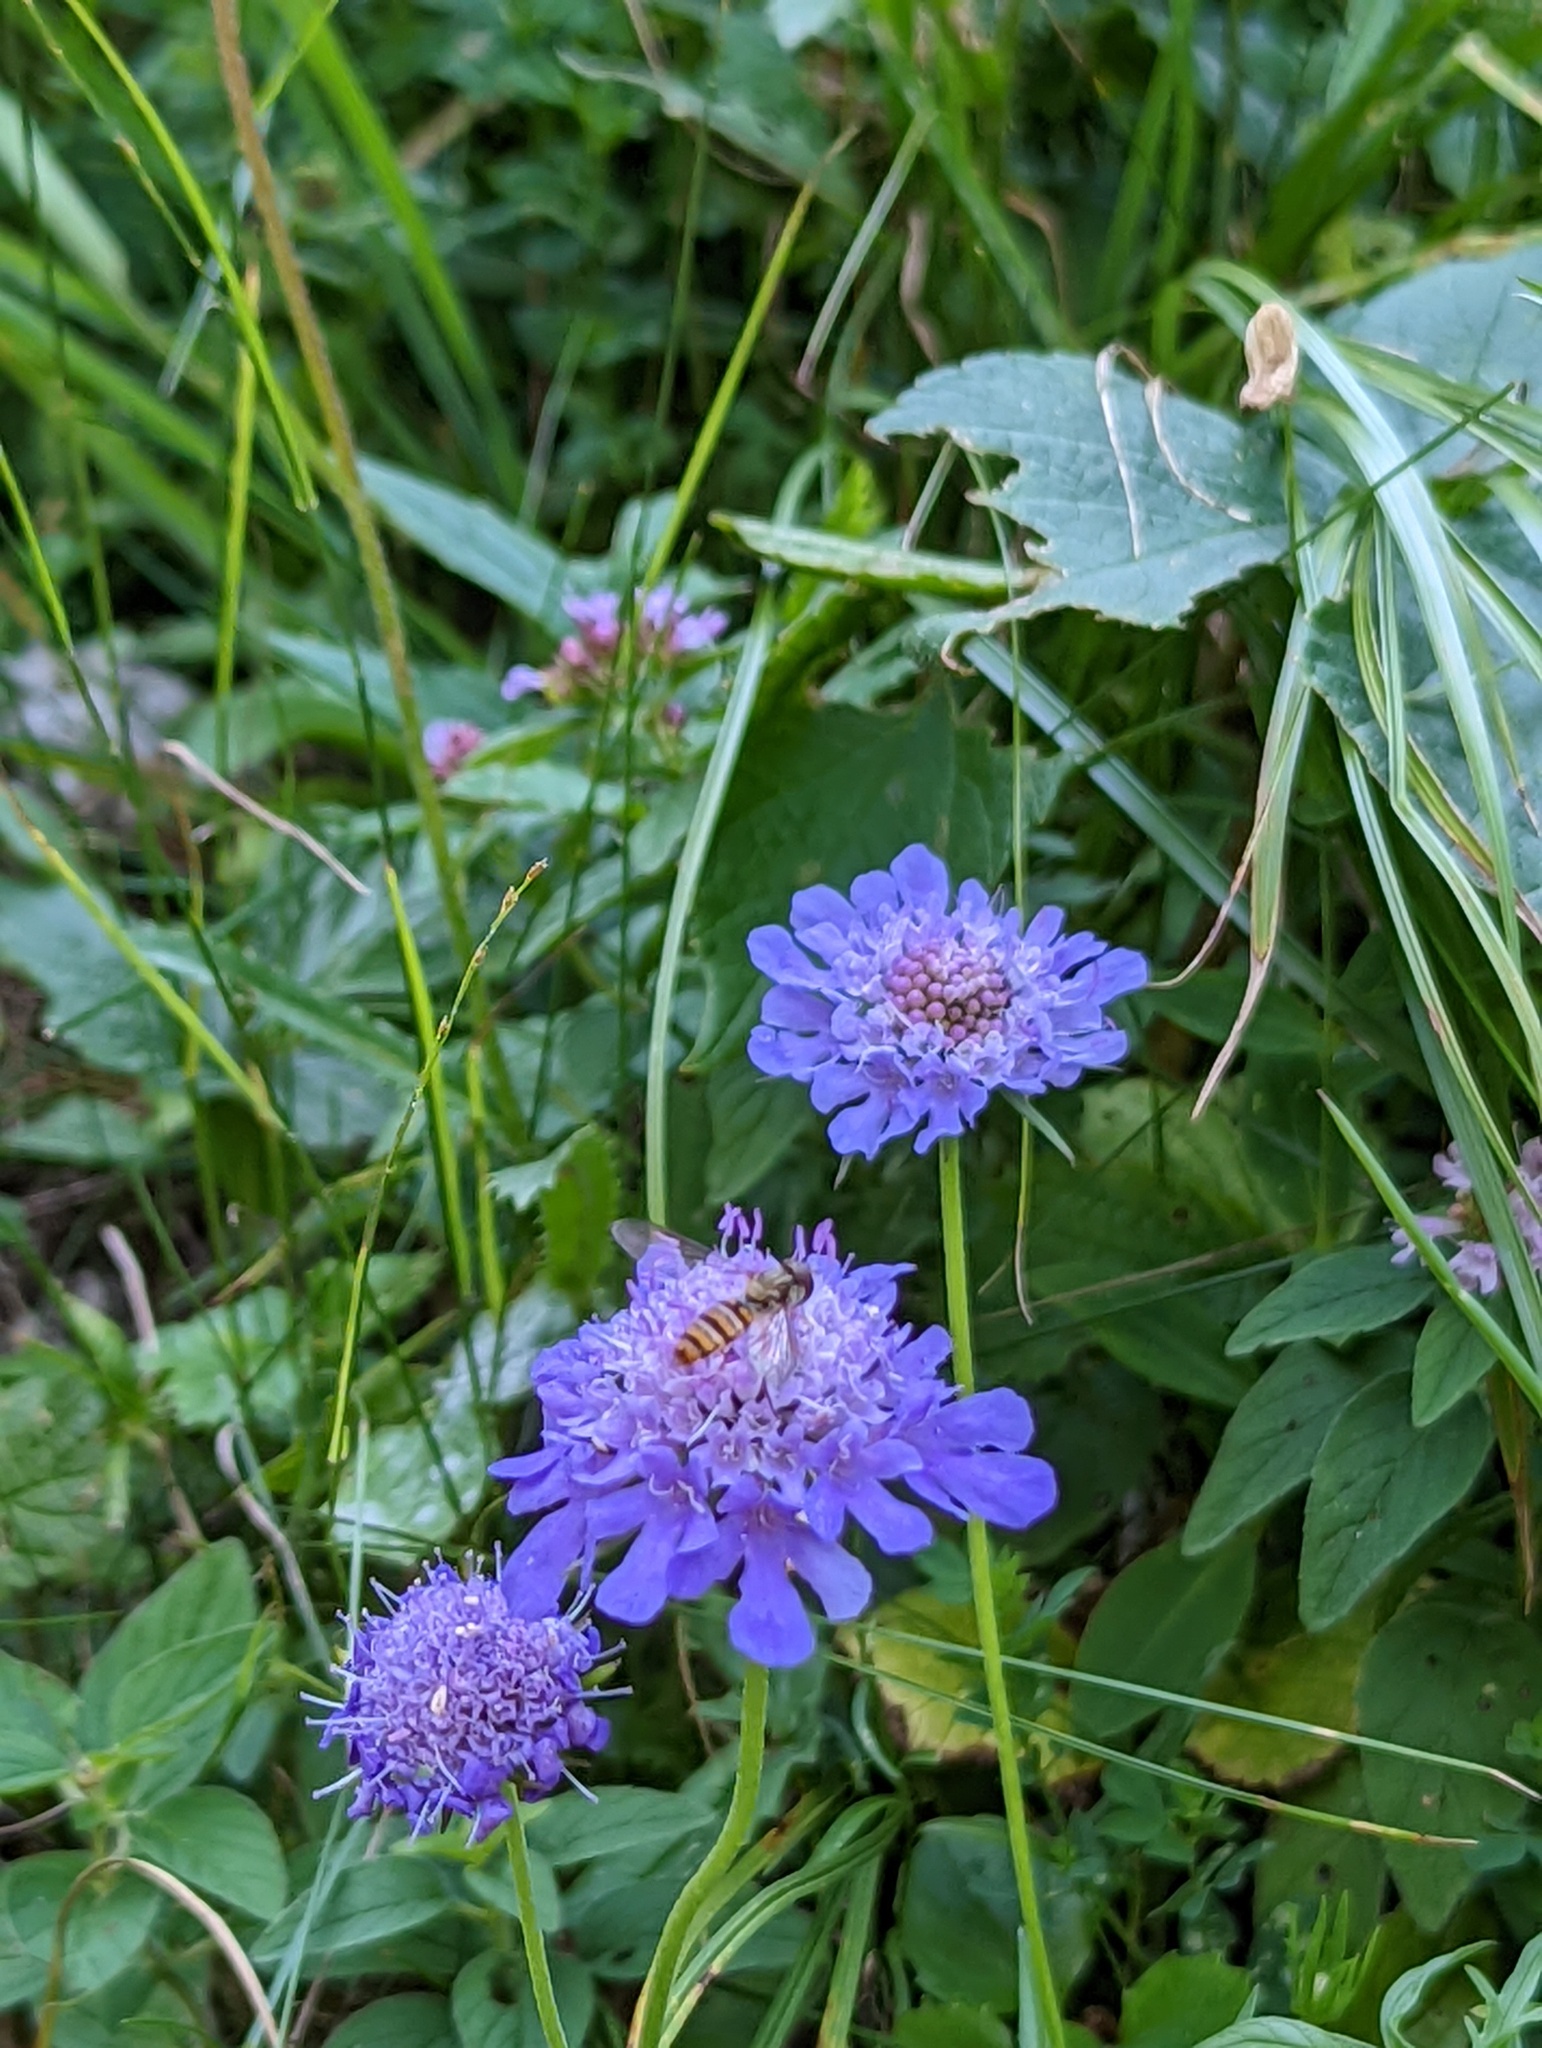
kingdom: Animalia
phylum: Arthropoda
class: Insecta
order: Diptera
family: Syrphidae
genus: Episyrphus
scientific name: Episyrphus balteatus
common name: Marmalade hoverfly
